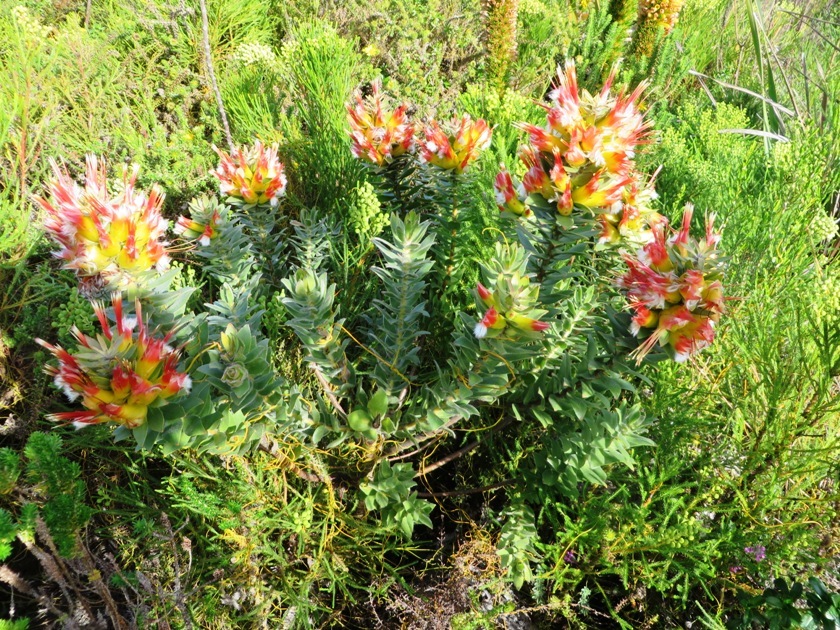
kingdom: Plantae
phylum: Tracheophyta
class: Magnoliopsida
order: Proteales
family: Proteaceae
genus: Mimetes
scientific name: Mimetes hirtus
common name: Marsh pagoda
